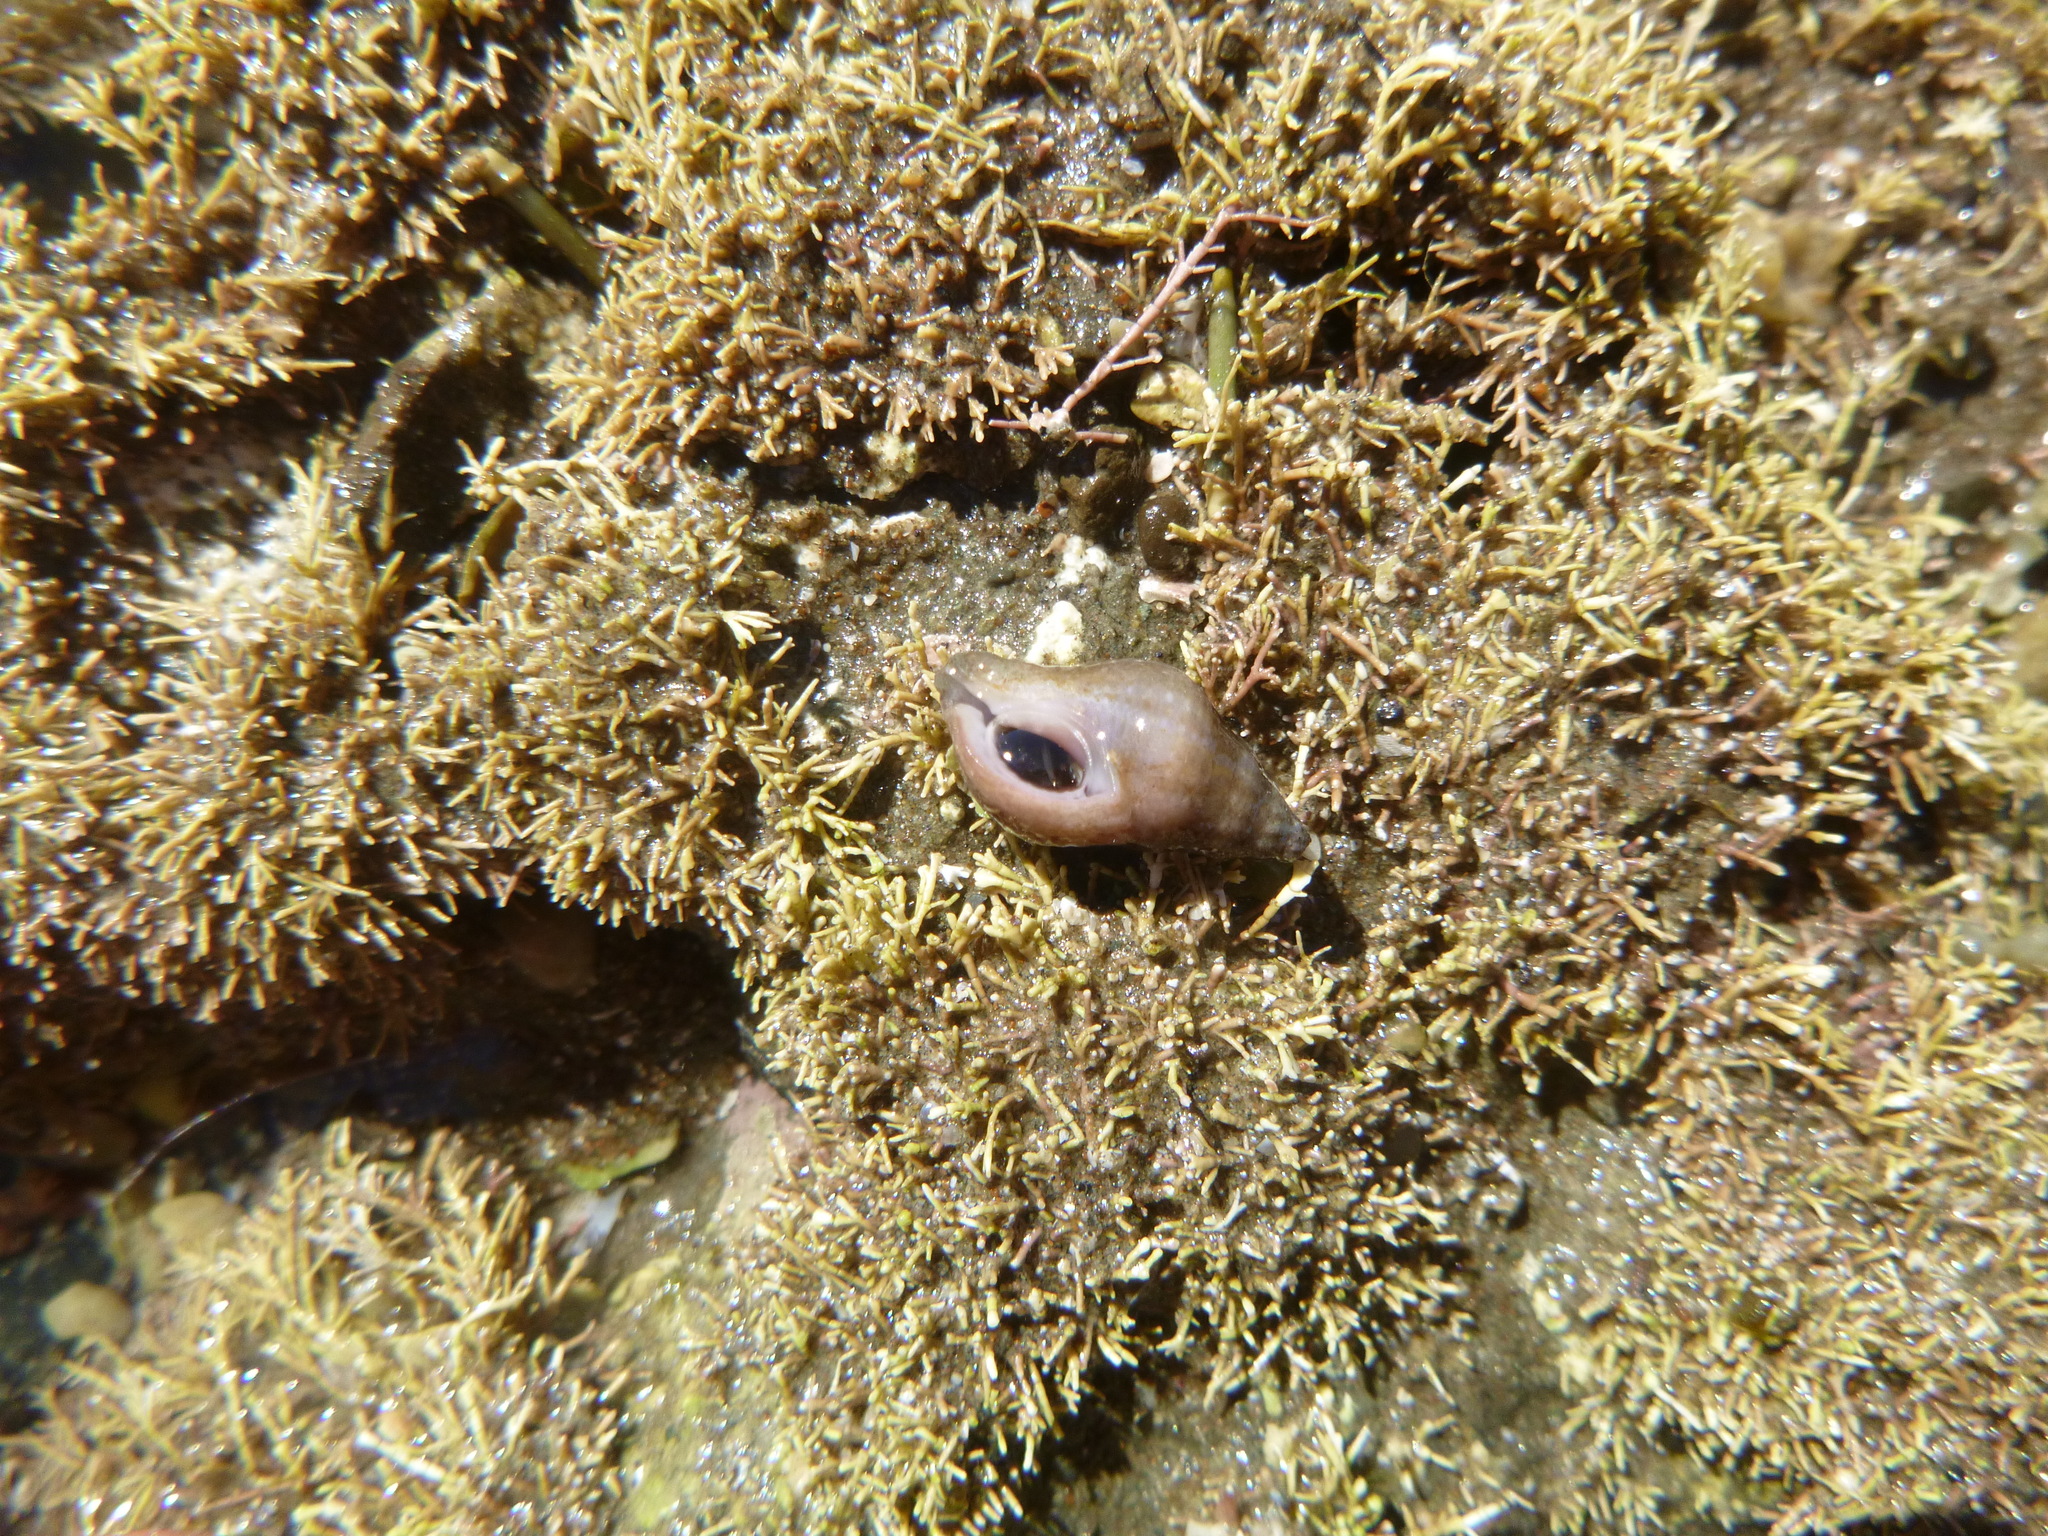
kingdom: Animalia
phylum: Mollusca
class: Gastropoda
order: Neogastropoda
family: Tudiclidae
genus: Buccinulum
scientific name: Buccinulum vittatum
